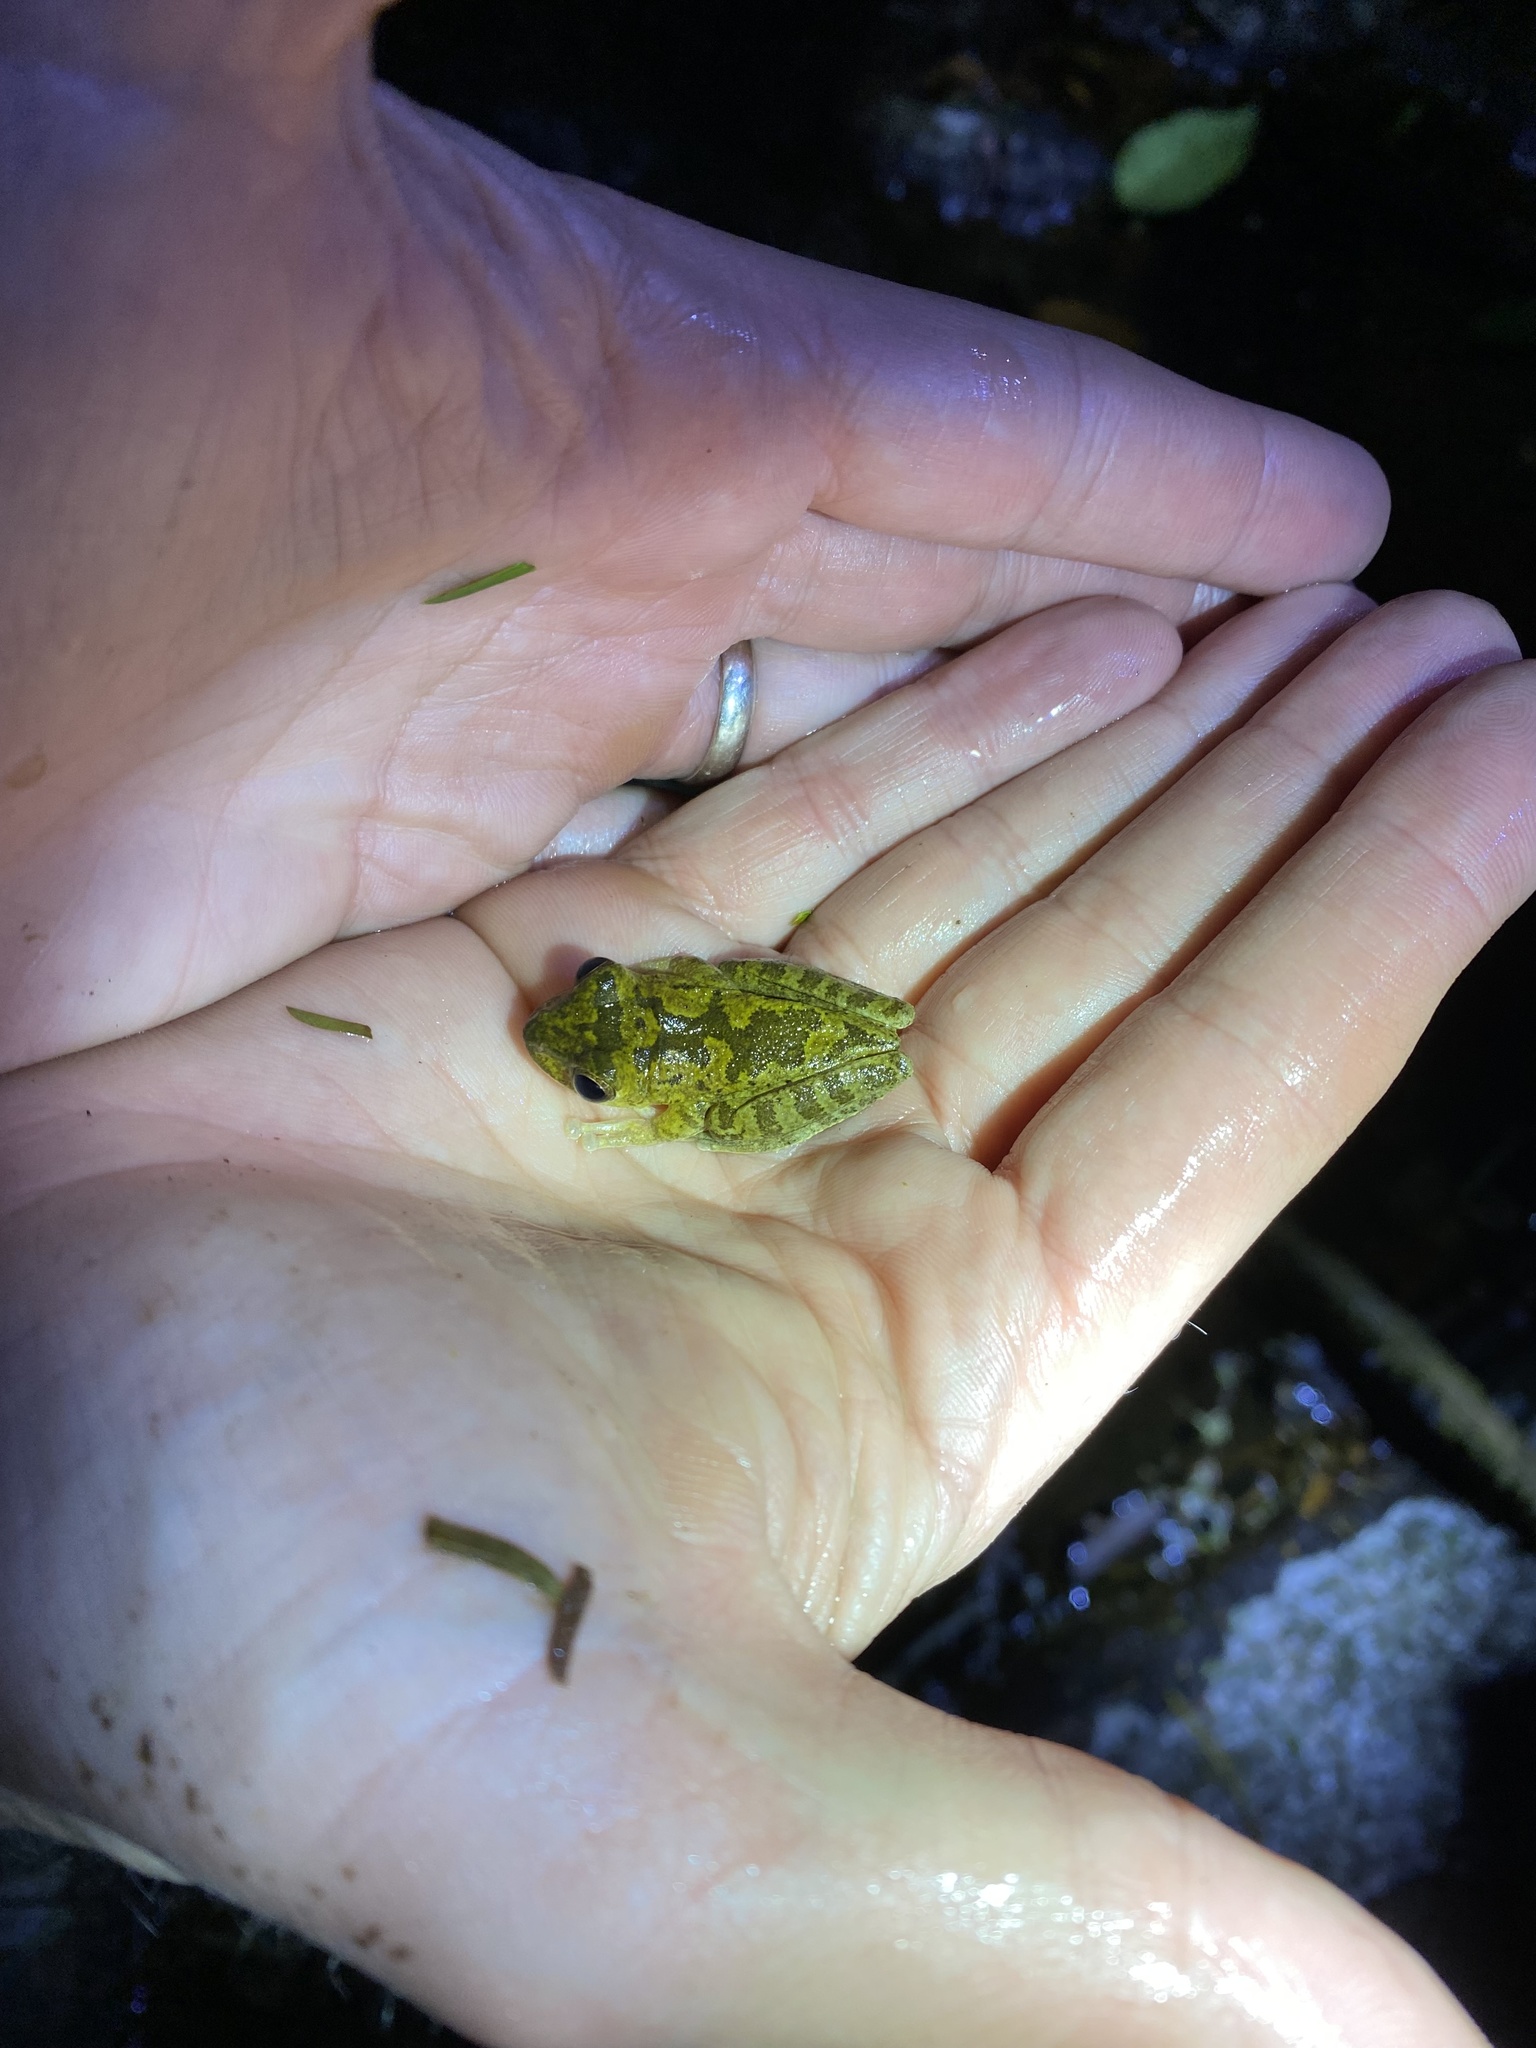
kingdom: Animalia
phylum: Chordata
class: Amphibia
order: Anura
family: Hylidae
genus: Smilisca
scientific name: Smilisca sordida
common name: Veragua cross-banded treefrog
